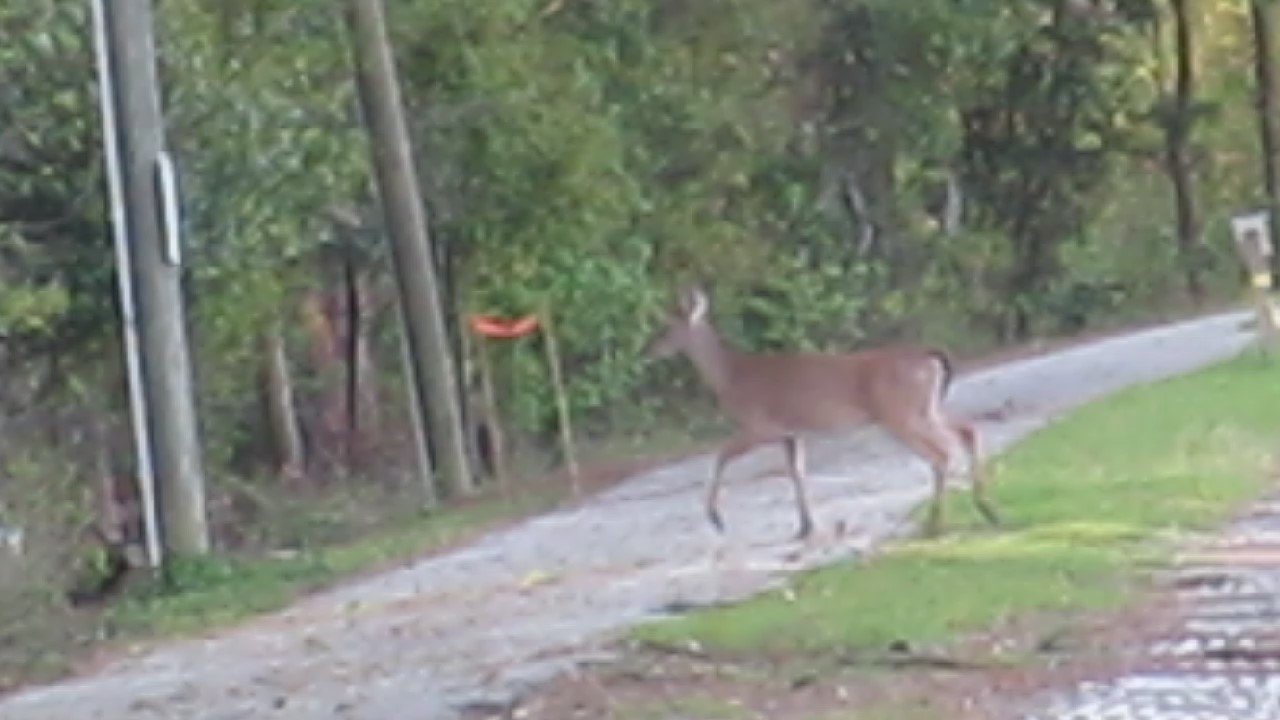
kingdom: Animalia
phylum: Chordata
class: Mammalia
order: Artiodactyla
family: Cervidae
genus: Odocoileus
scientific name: Odocoileus virginianus
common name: White-tailed deer
